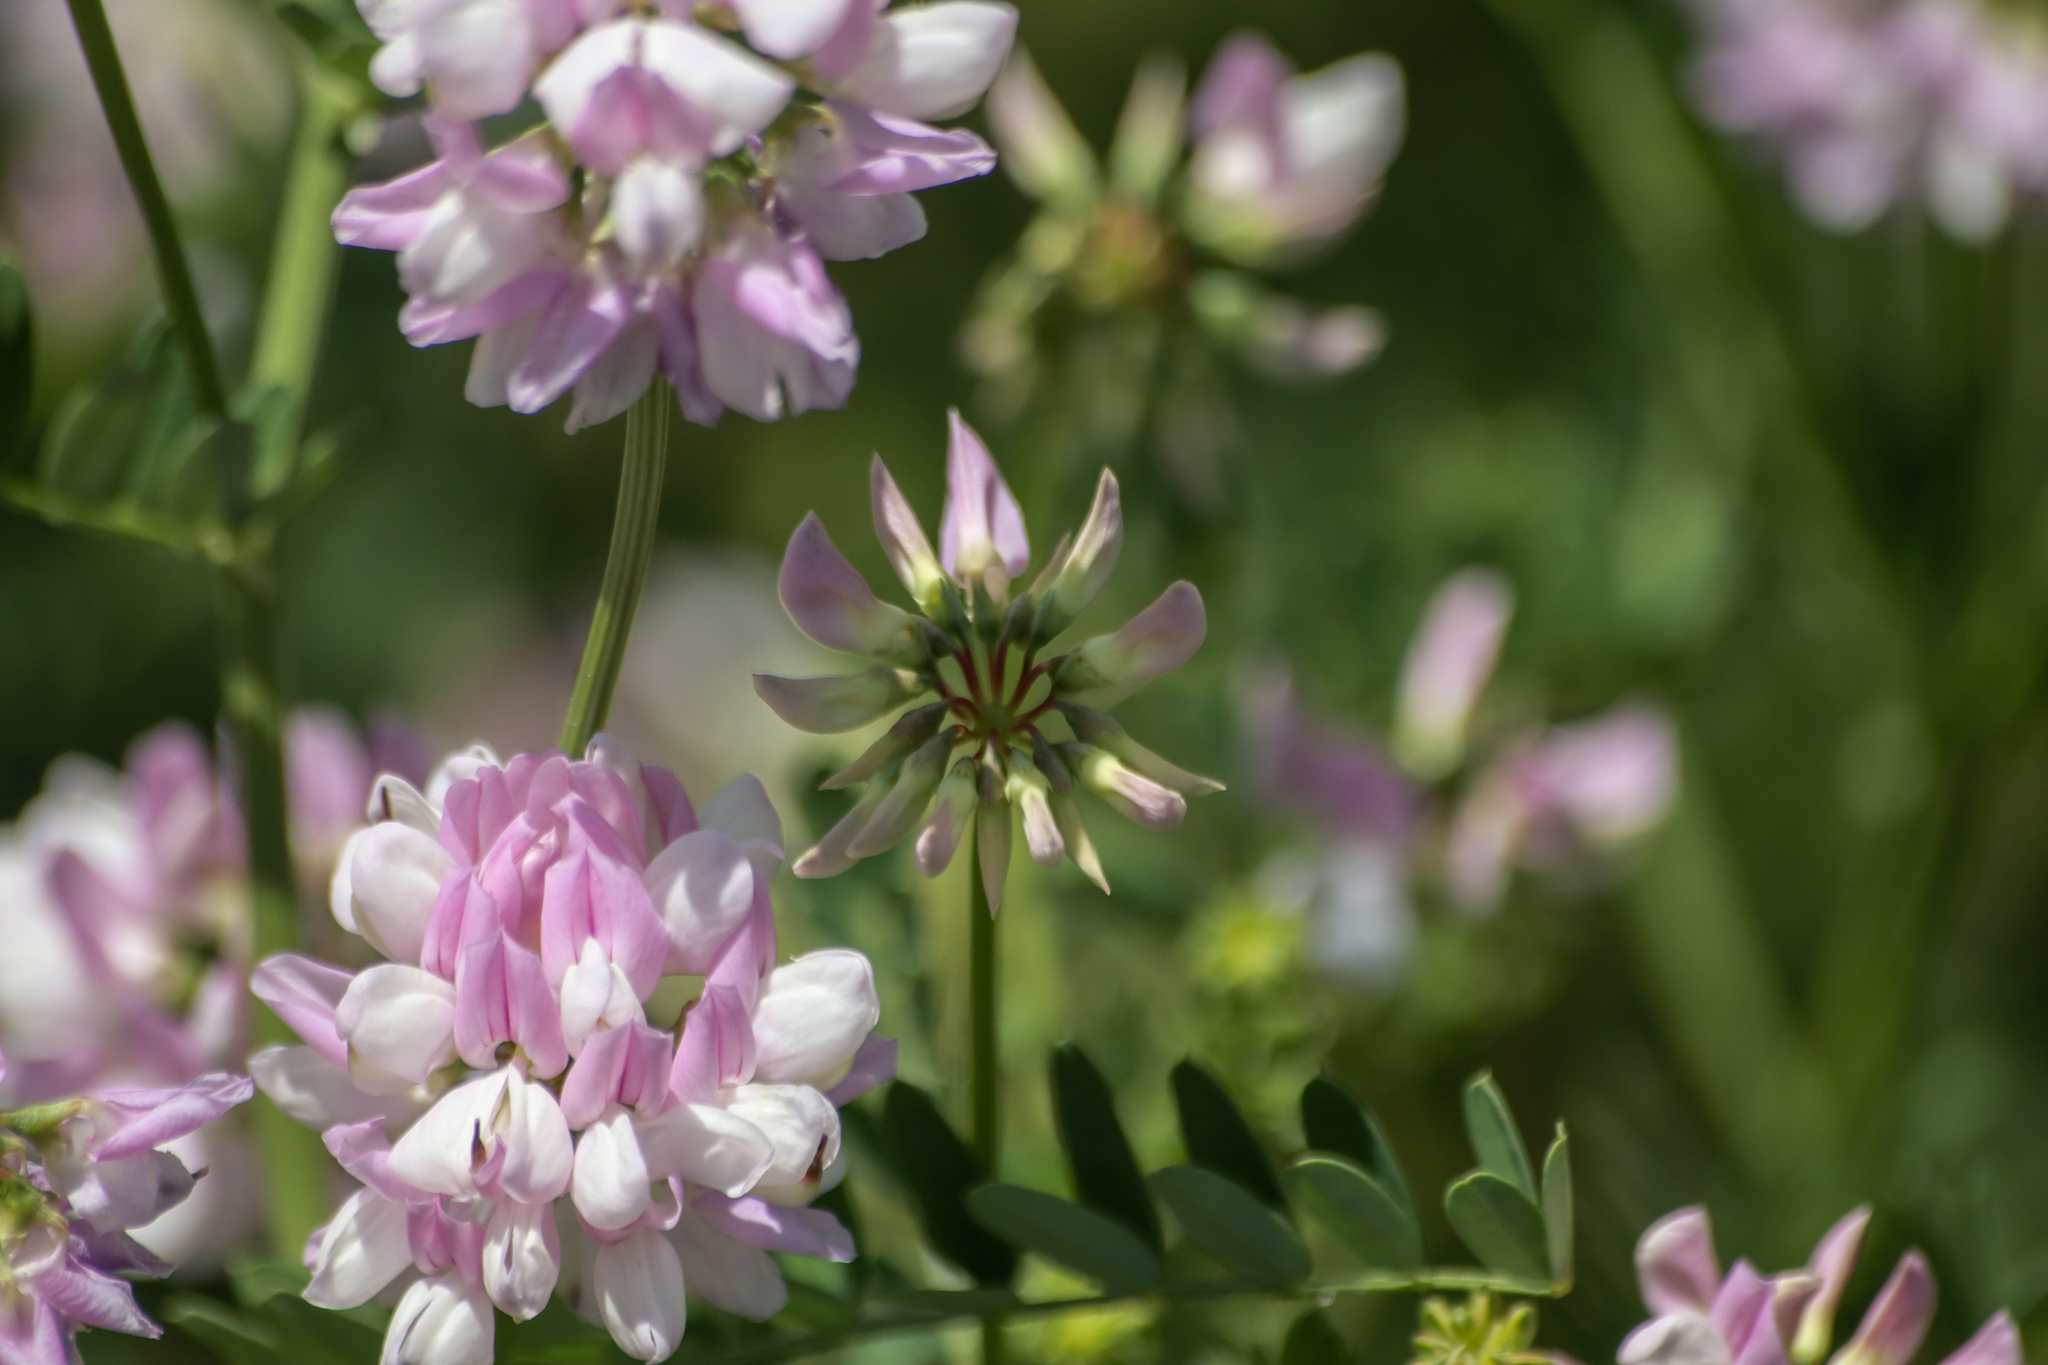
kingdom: Plantae
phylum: Tracheophyta
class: Magnoliopsida
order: Fabales
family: Fabaceae
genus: Coronilla
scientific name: Coronilla varia
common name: Crownvetch
